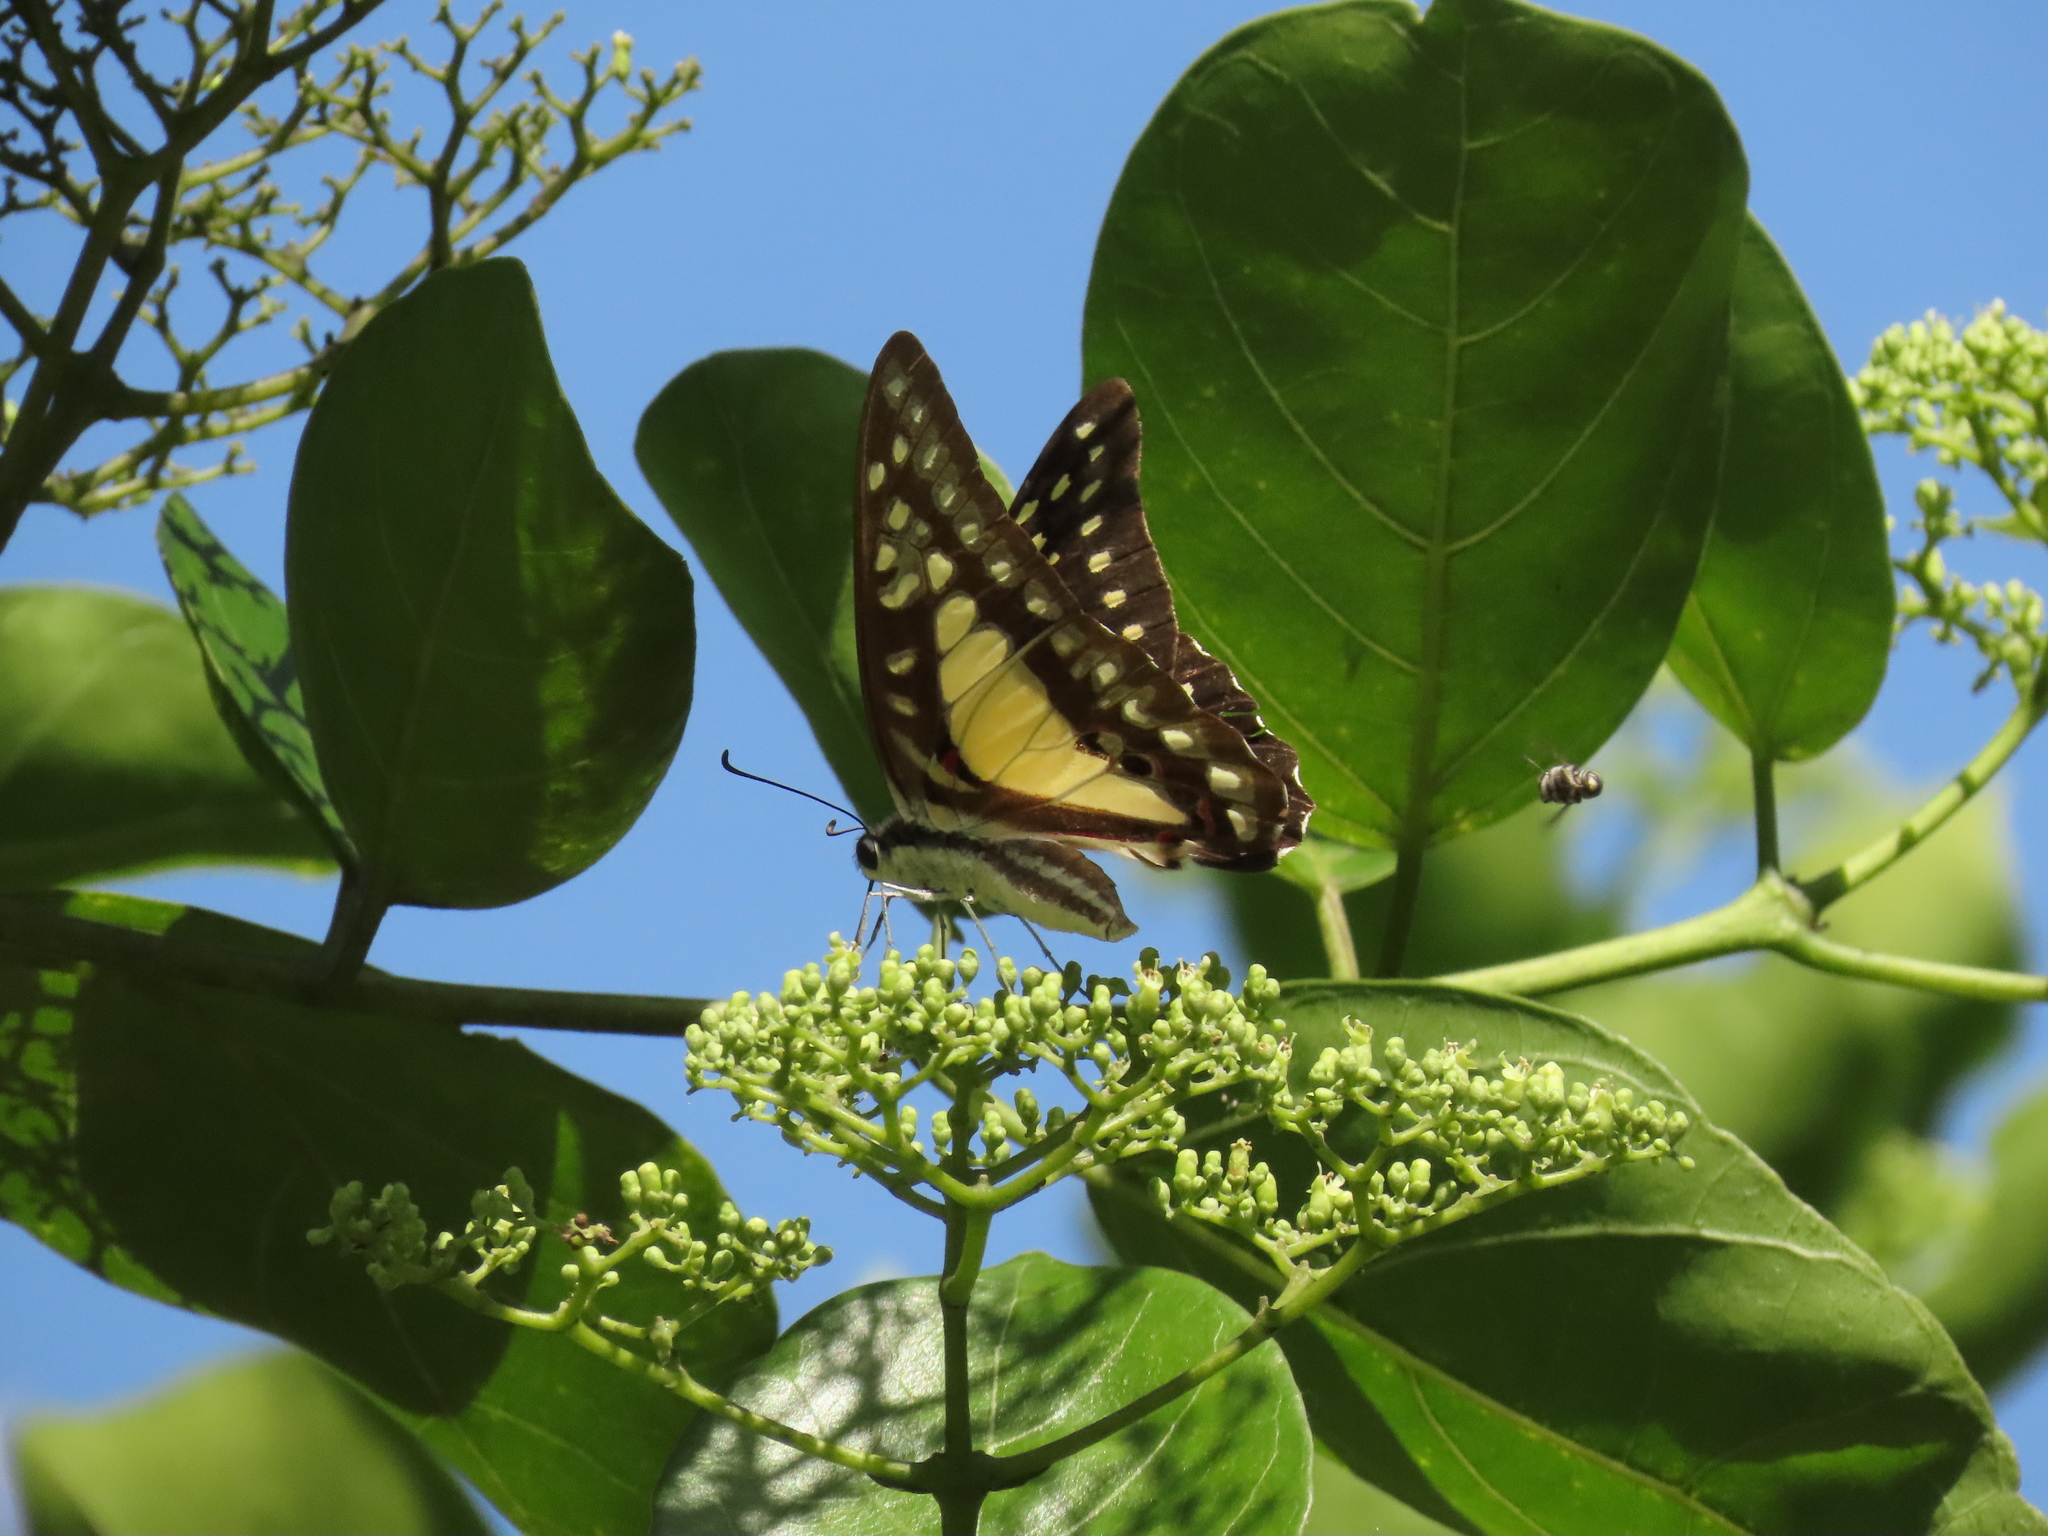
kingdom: Animalia
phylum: Arthropoda
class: Insecta
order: Lepidoptera
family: Papilionidae
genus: Graphium
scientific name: Graphium eurypylus
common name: Great jay
